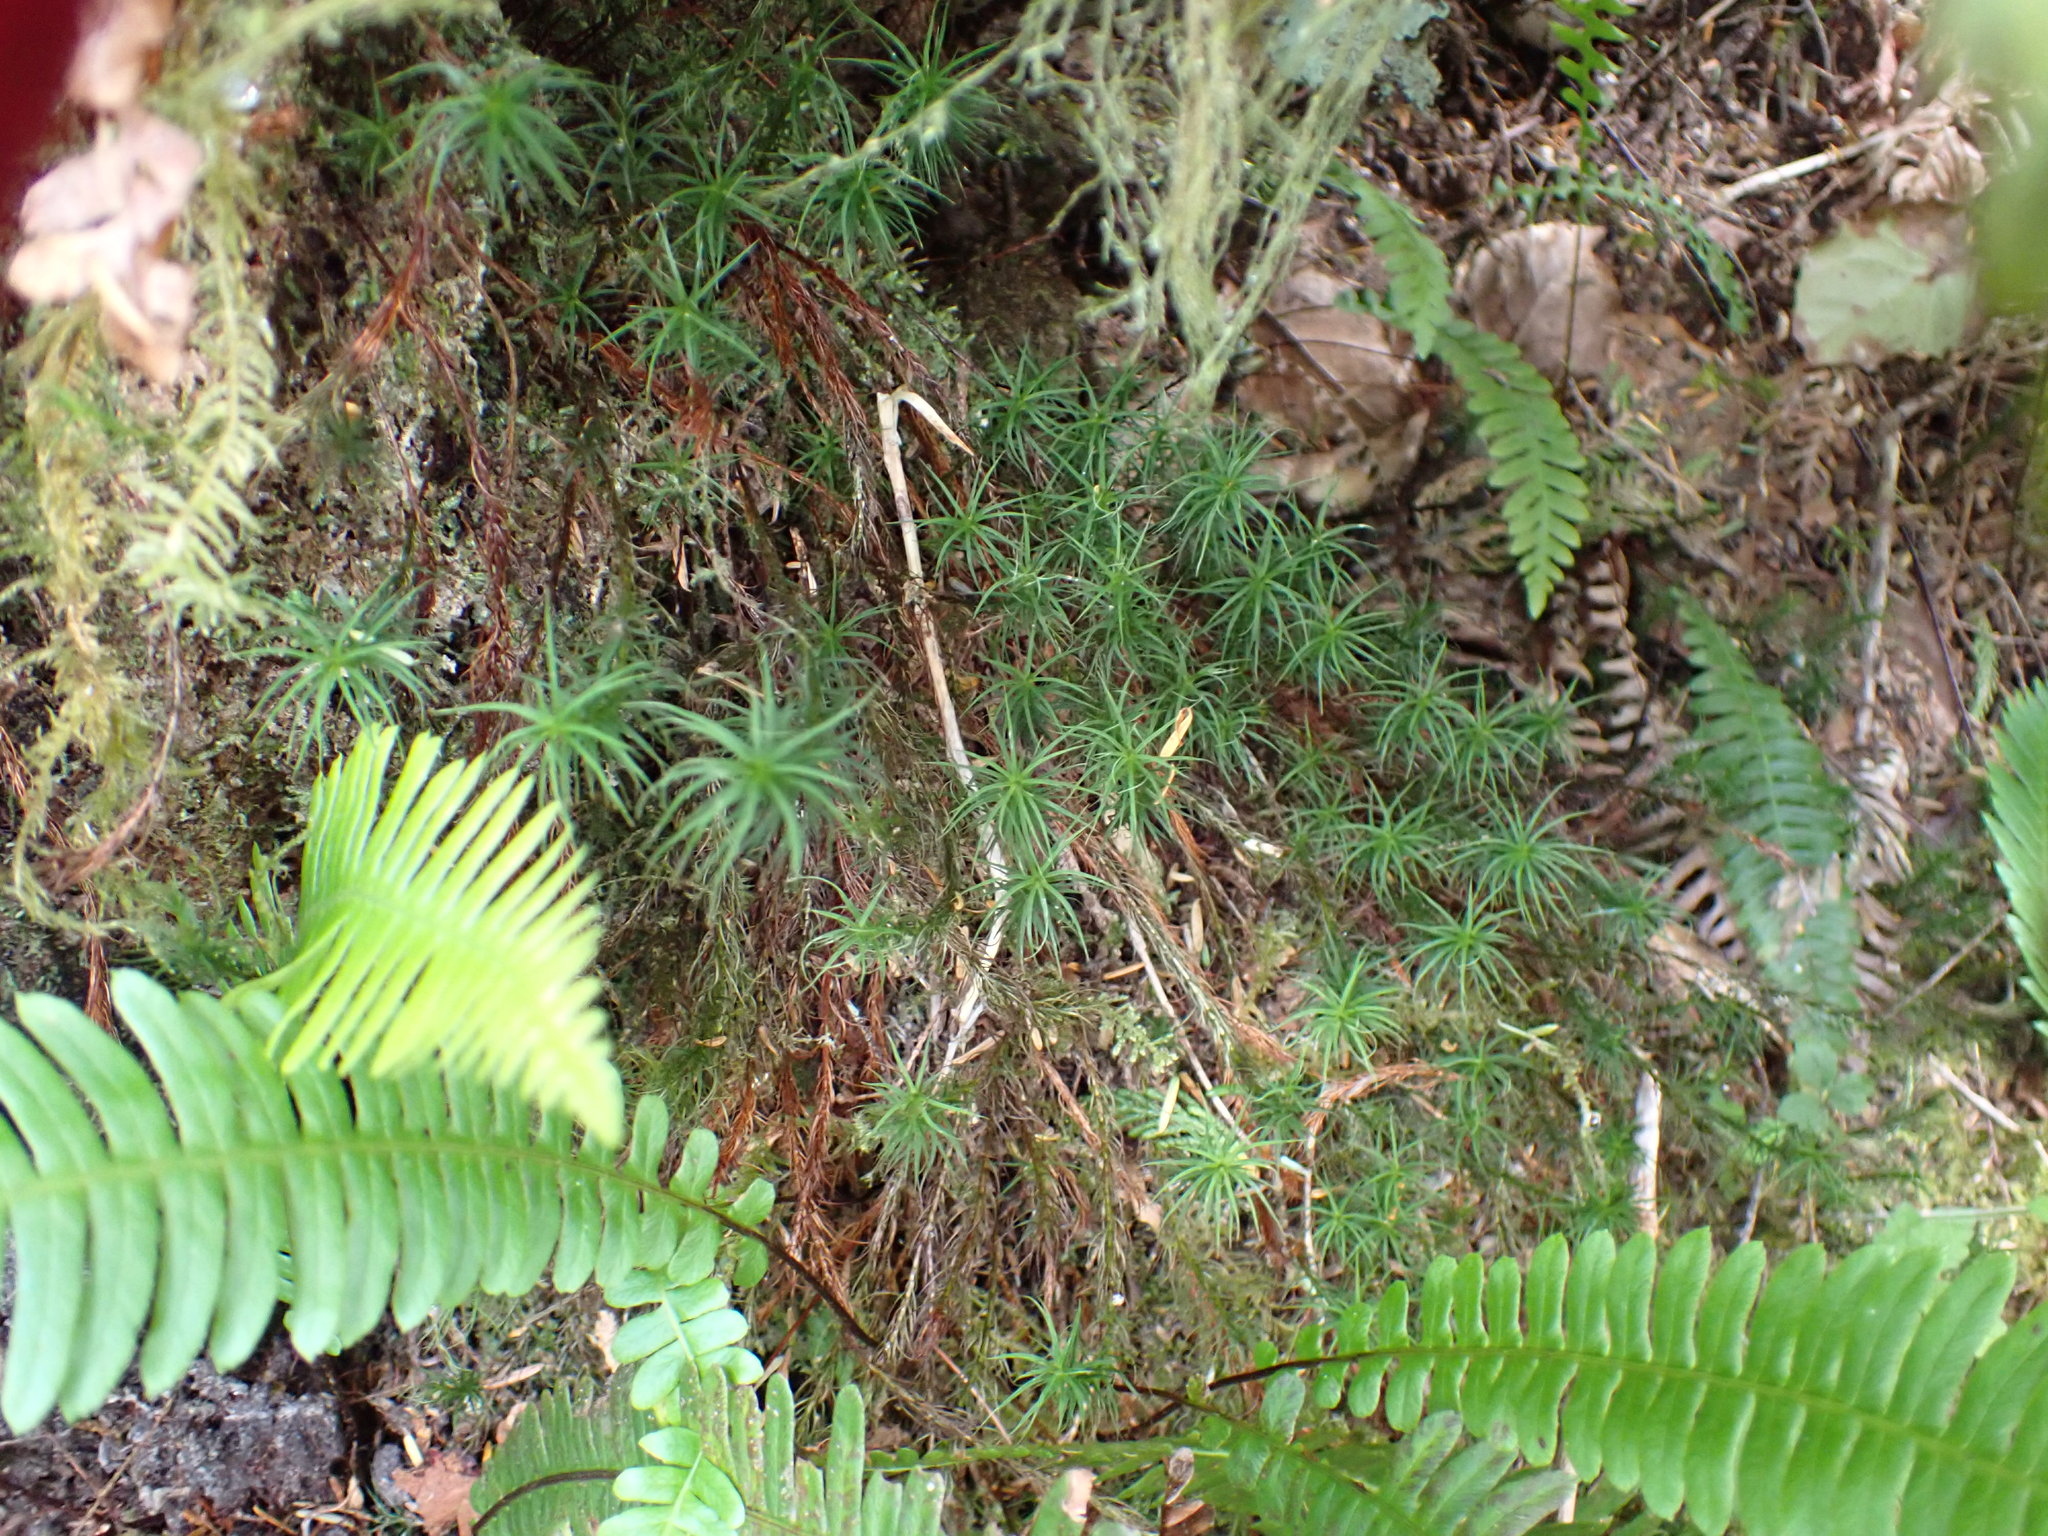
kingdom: Plantae
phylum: Bryophyta
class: Polytrichopsida
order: Polytrichales
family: Polytrichaceae
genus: Polytrichastrum
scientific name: Polytrichastrum alpinum
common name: Alpine haircap
